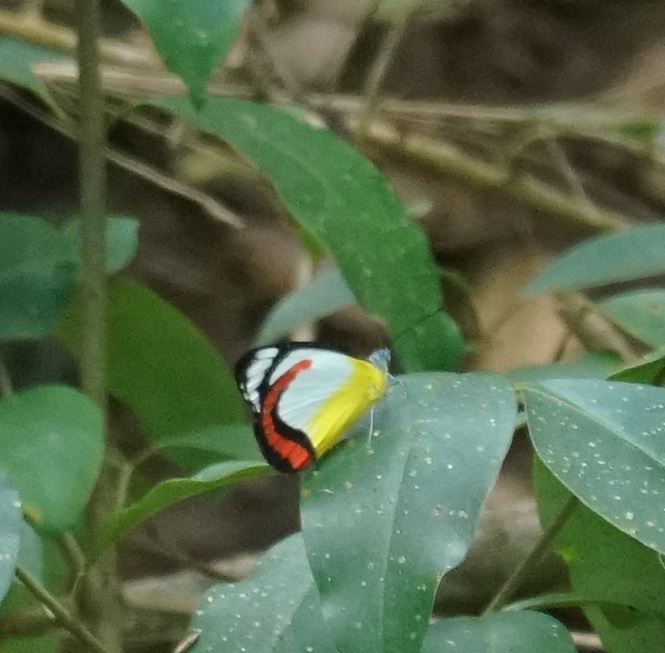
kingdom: Animalia
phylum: Arthropoda
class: Insecta
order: Lepidoptera
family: Pieridae
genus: Delias
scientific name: Delias mysis
